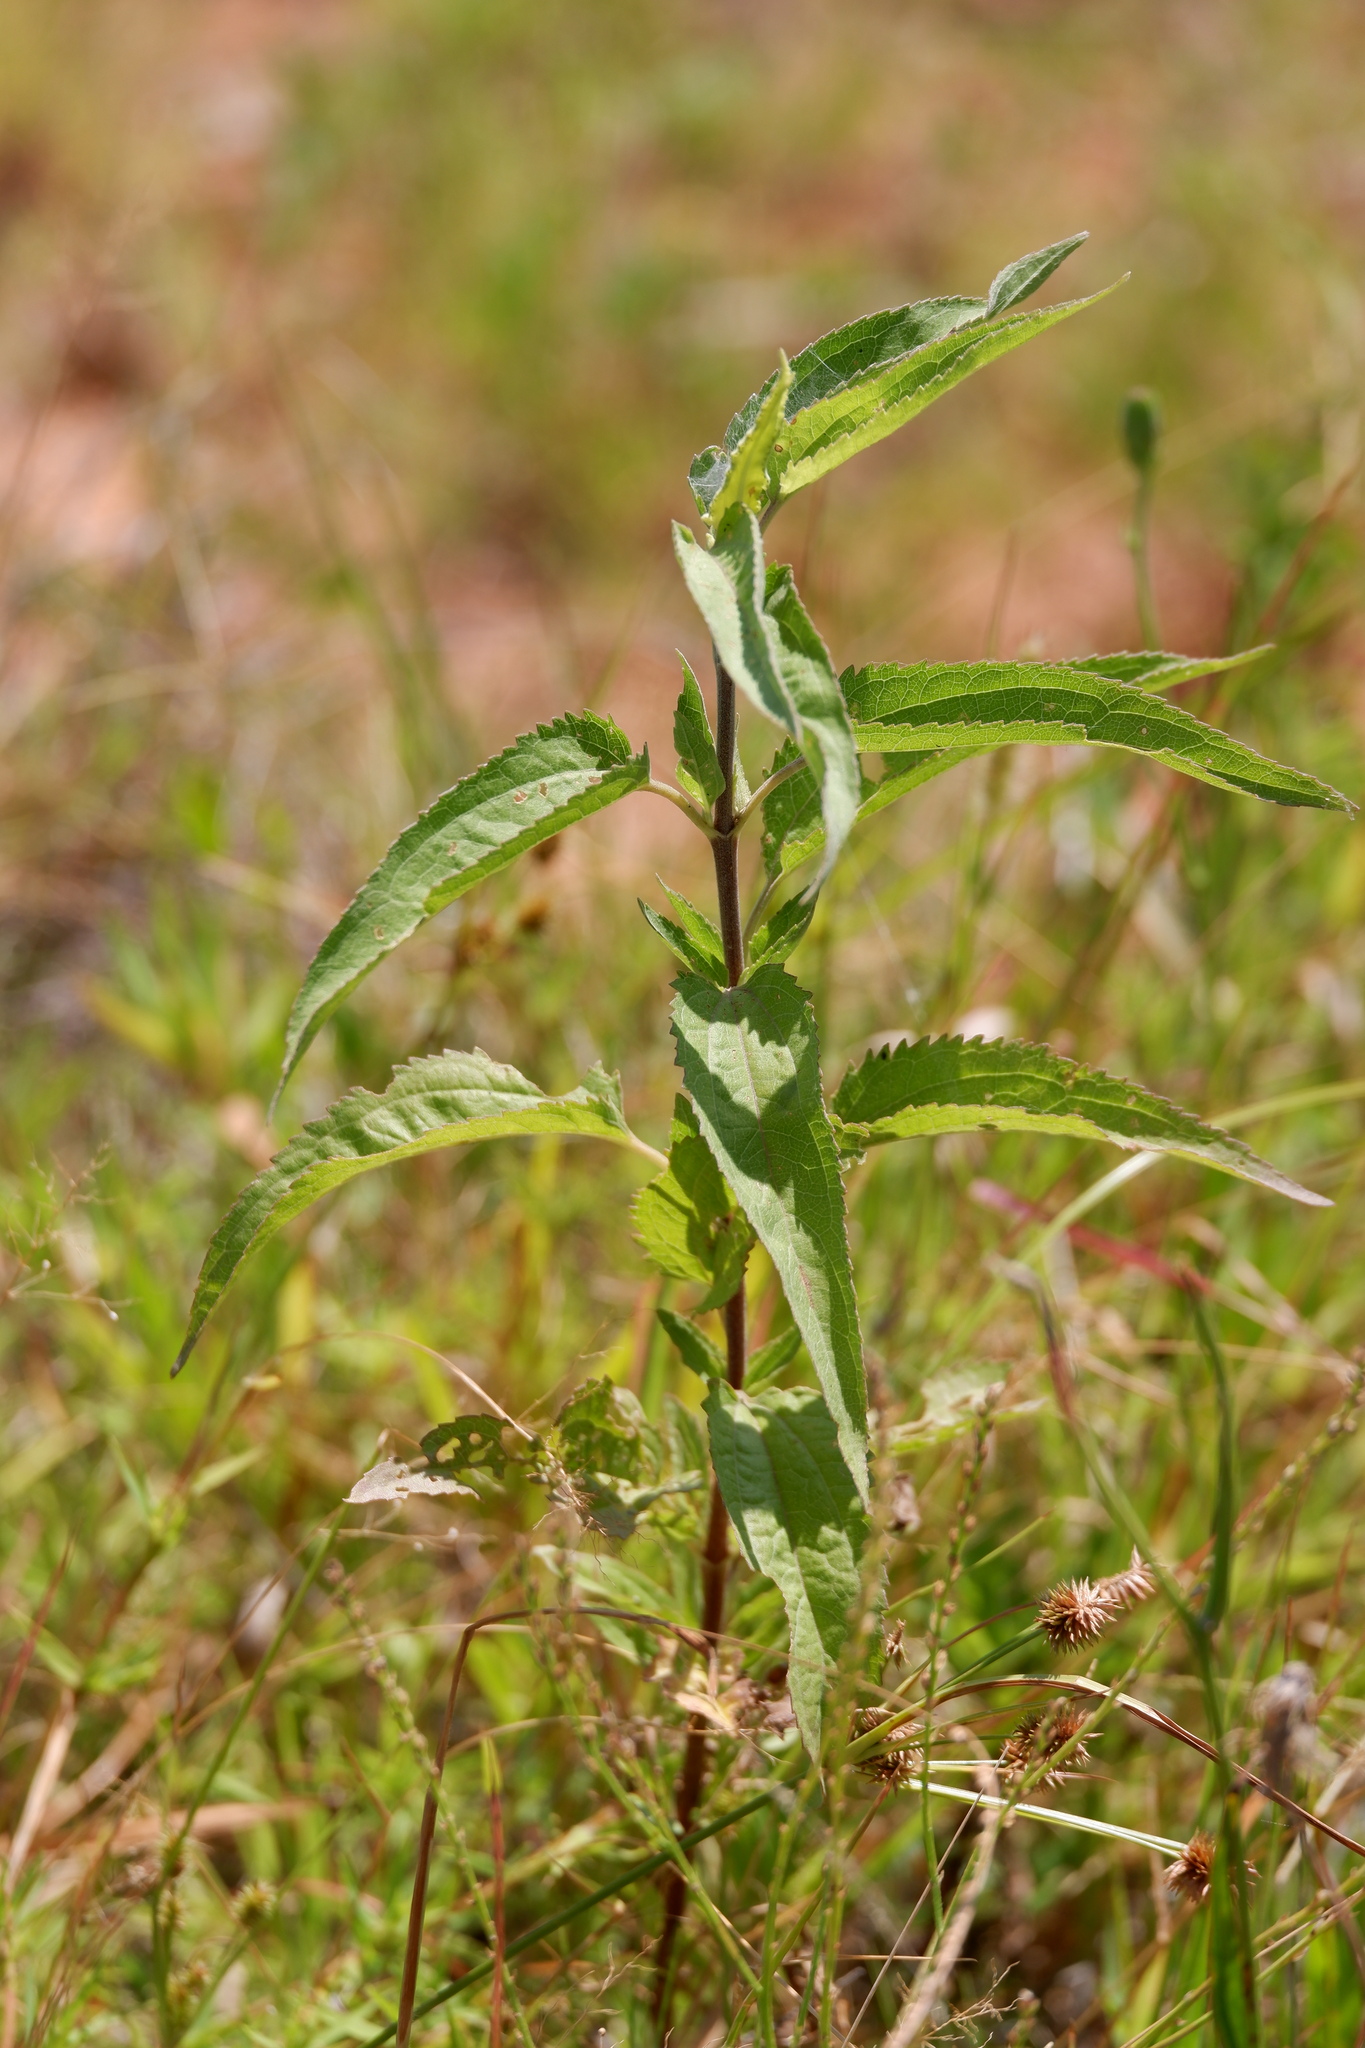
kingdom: Plantae
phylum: Tracheophyta
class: Magnoliopsida
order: Asterales
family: Asteraceae
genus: Eupatorium
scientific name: Eupatorium serotinum
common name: Late boneset
